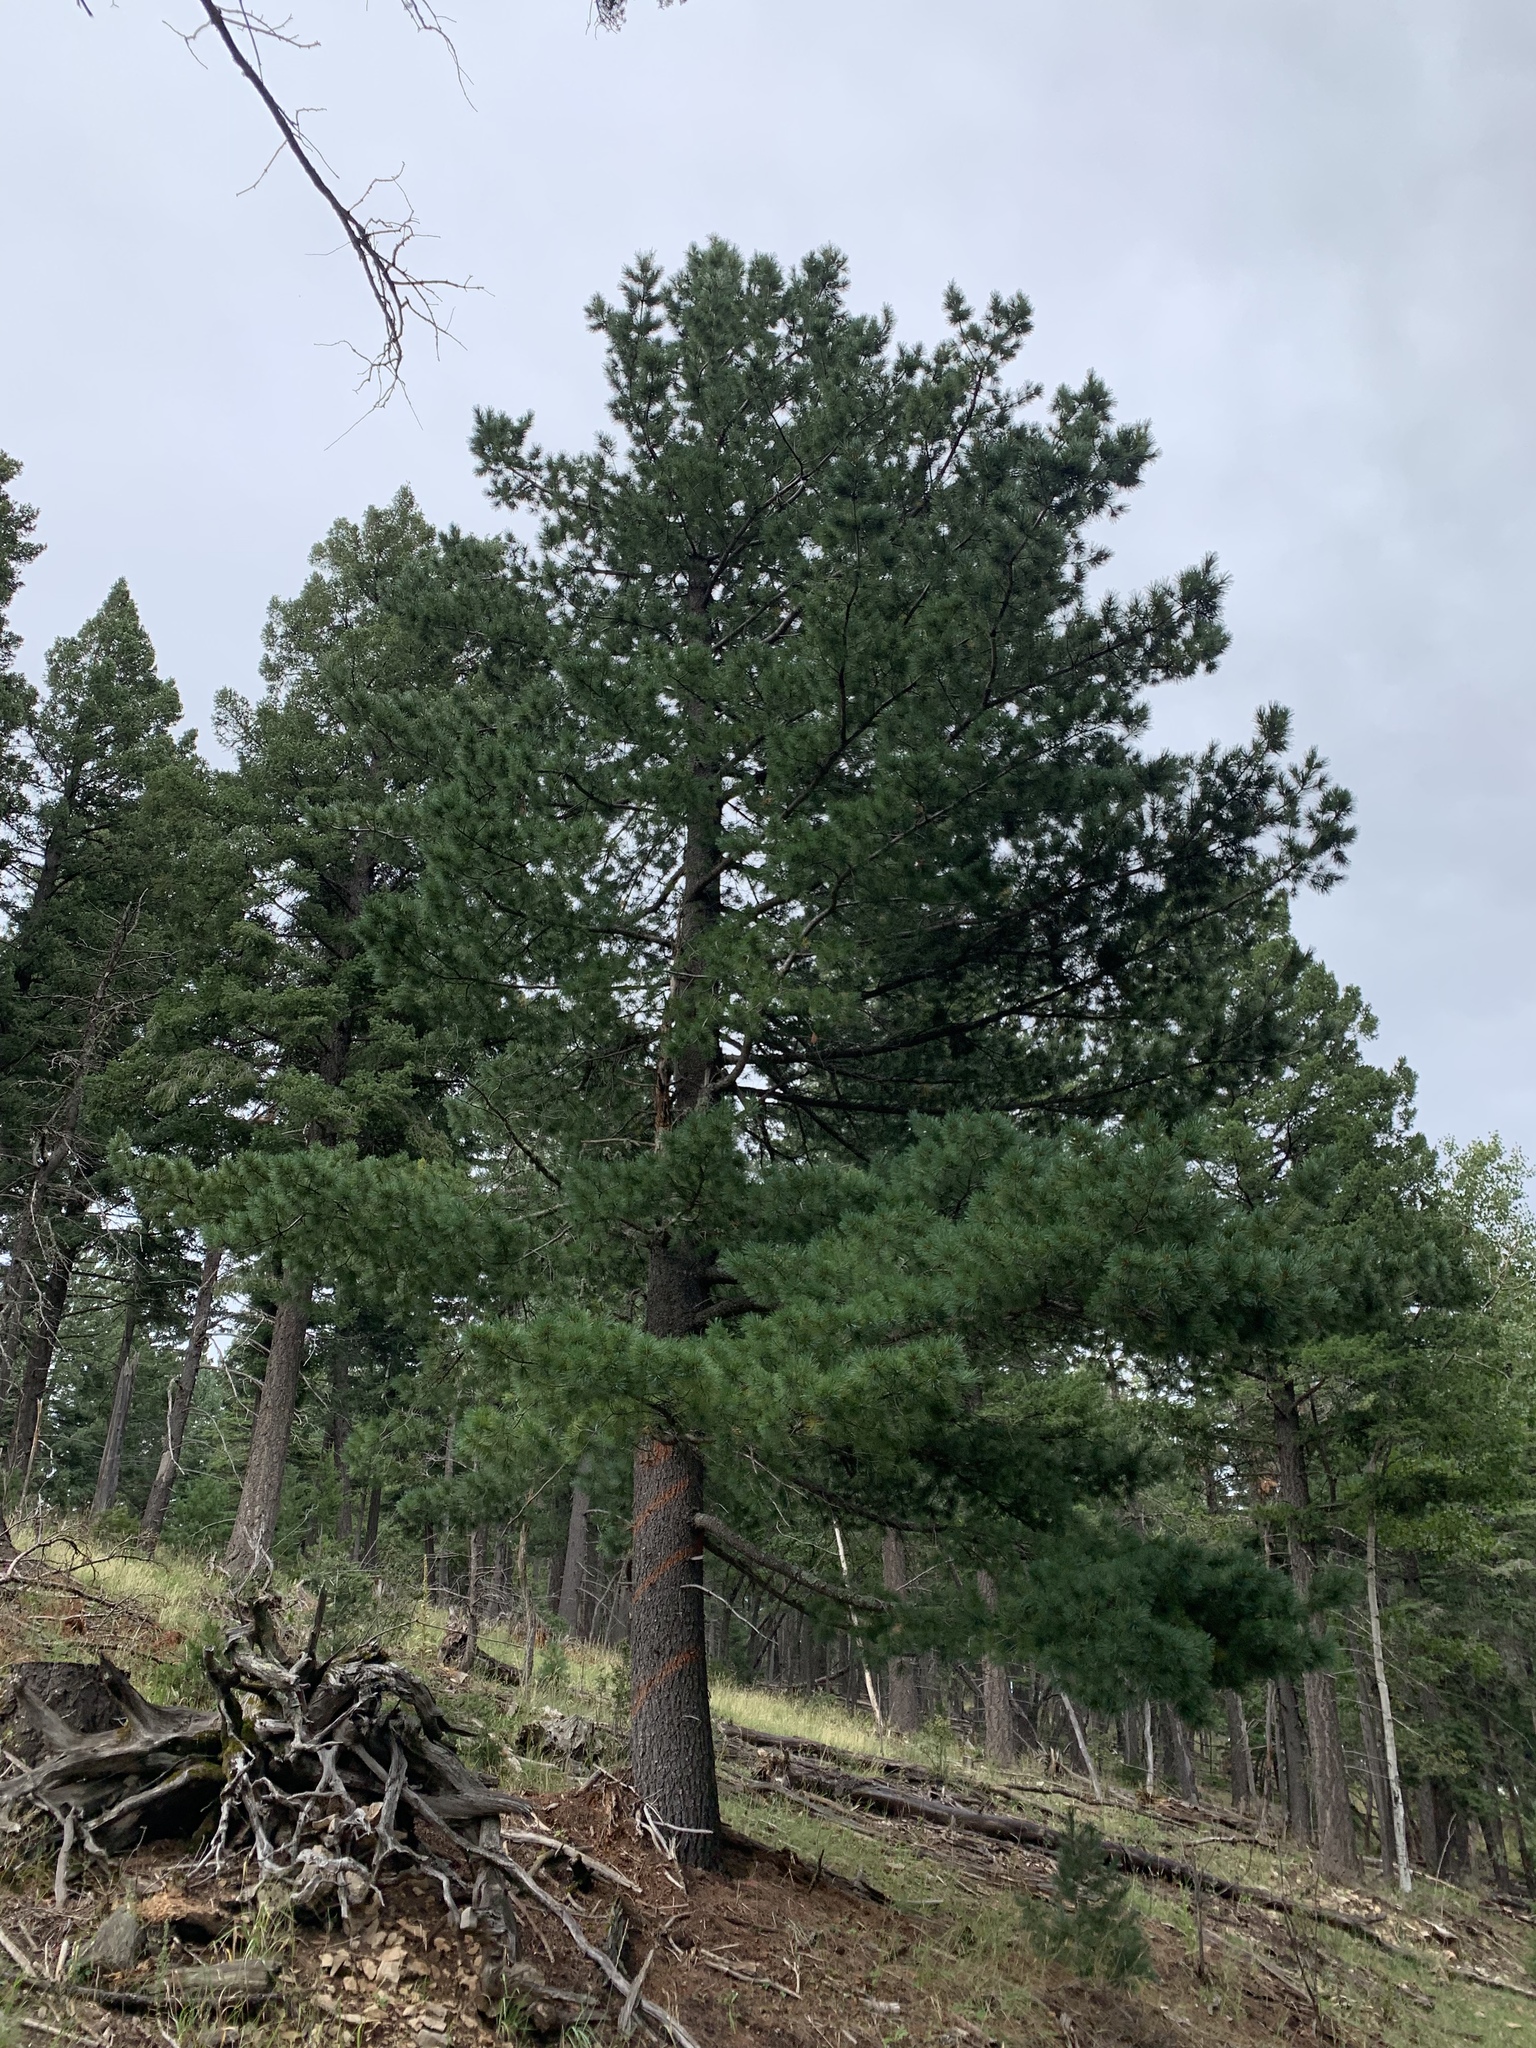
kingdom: Plantae
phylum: Tracheophyta
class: Pinopsida
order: Pinales
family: Pinaceae
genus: Pinus
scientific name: Pinus strobiformis
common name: Southwestern white pine
